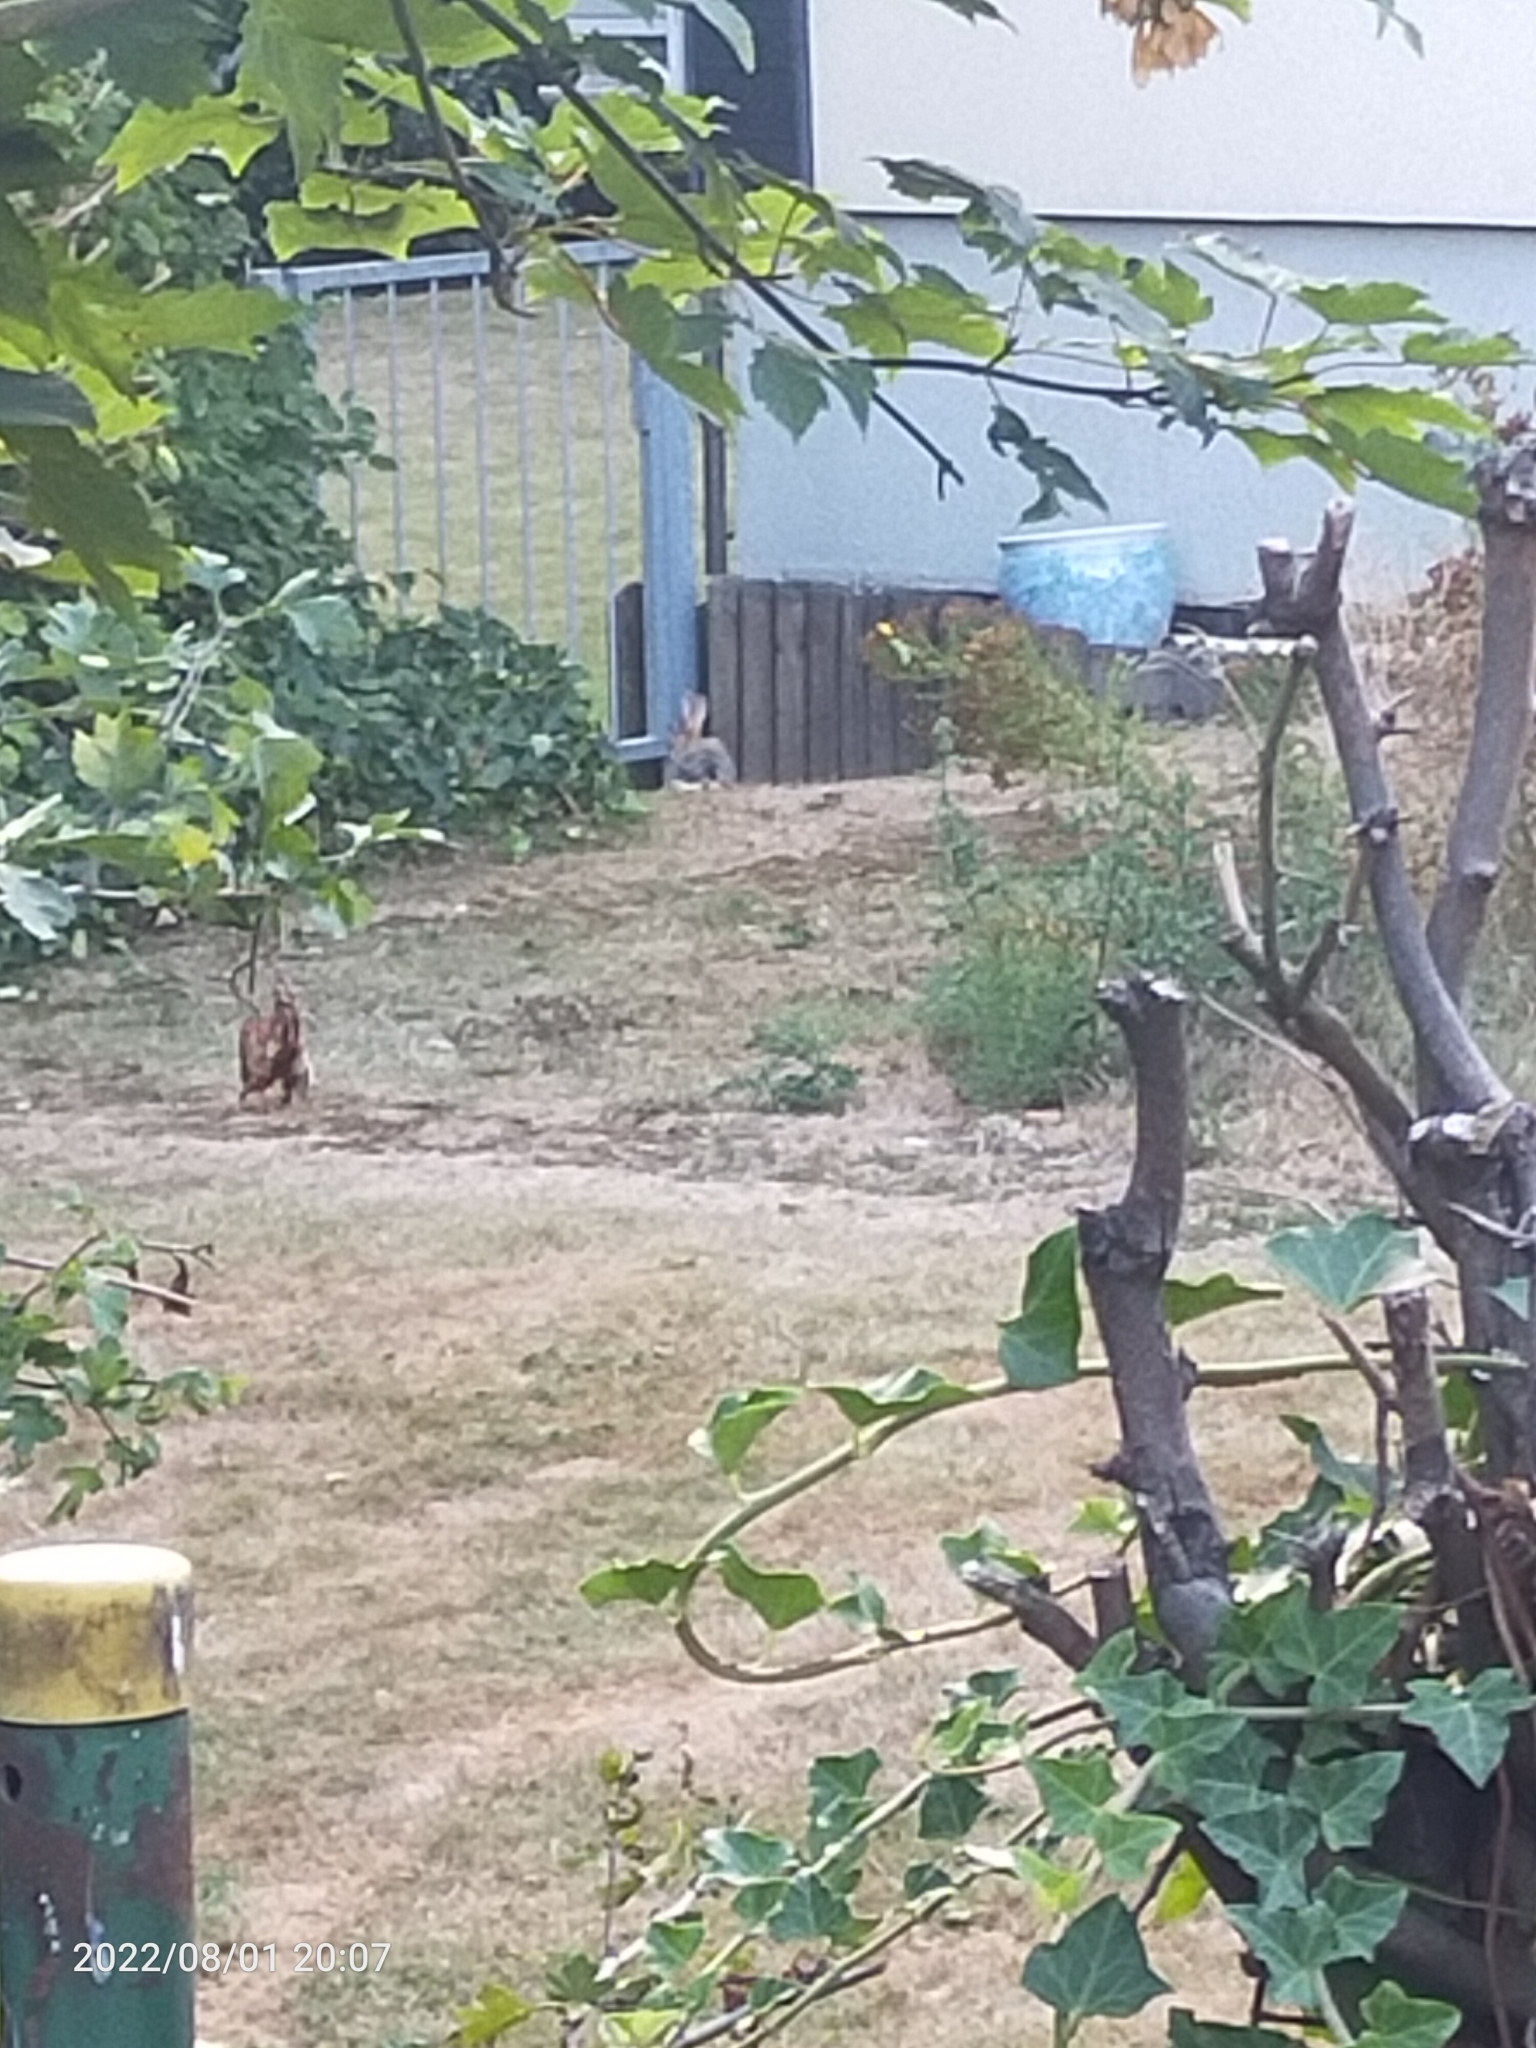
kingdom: Animalia
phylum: Chordata
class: Mammalia
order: Lagomorpha
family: Leporidae
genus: Lepus
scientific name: Lepus europaeus
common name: European hare
